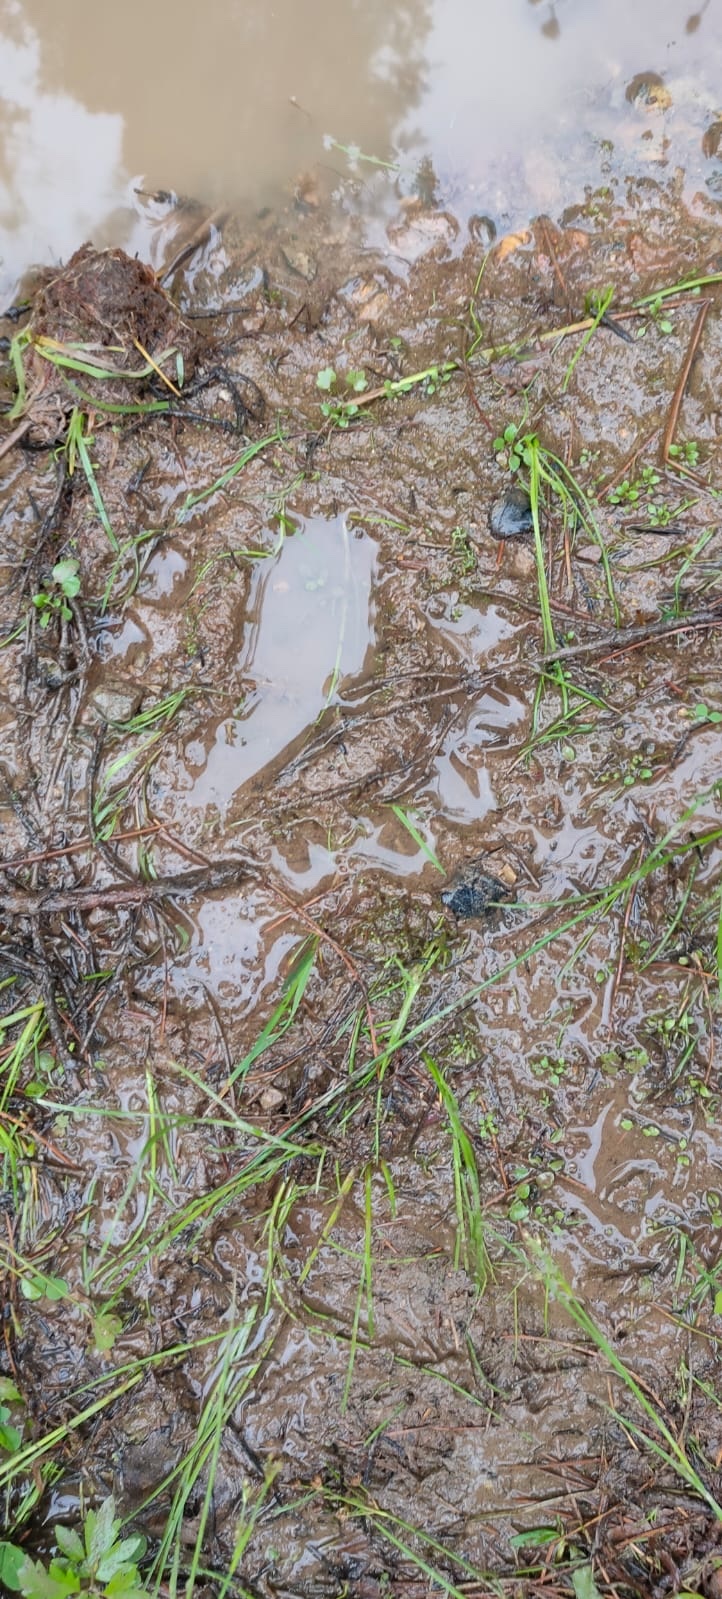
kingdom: Animalia
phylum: Chordata
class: Mammalia
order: Carnivora
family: Ursidae
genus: Ursus
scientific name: Ursus arctos
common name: Brown bear
